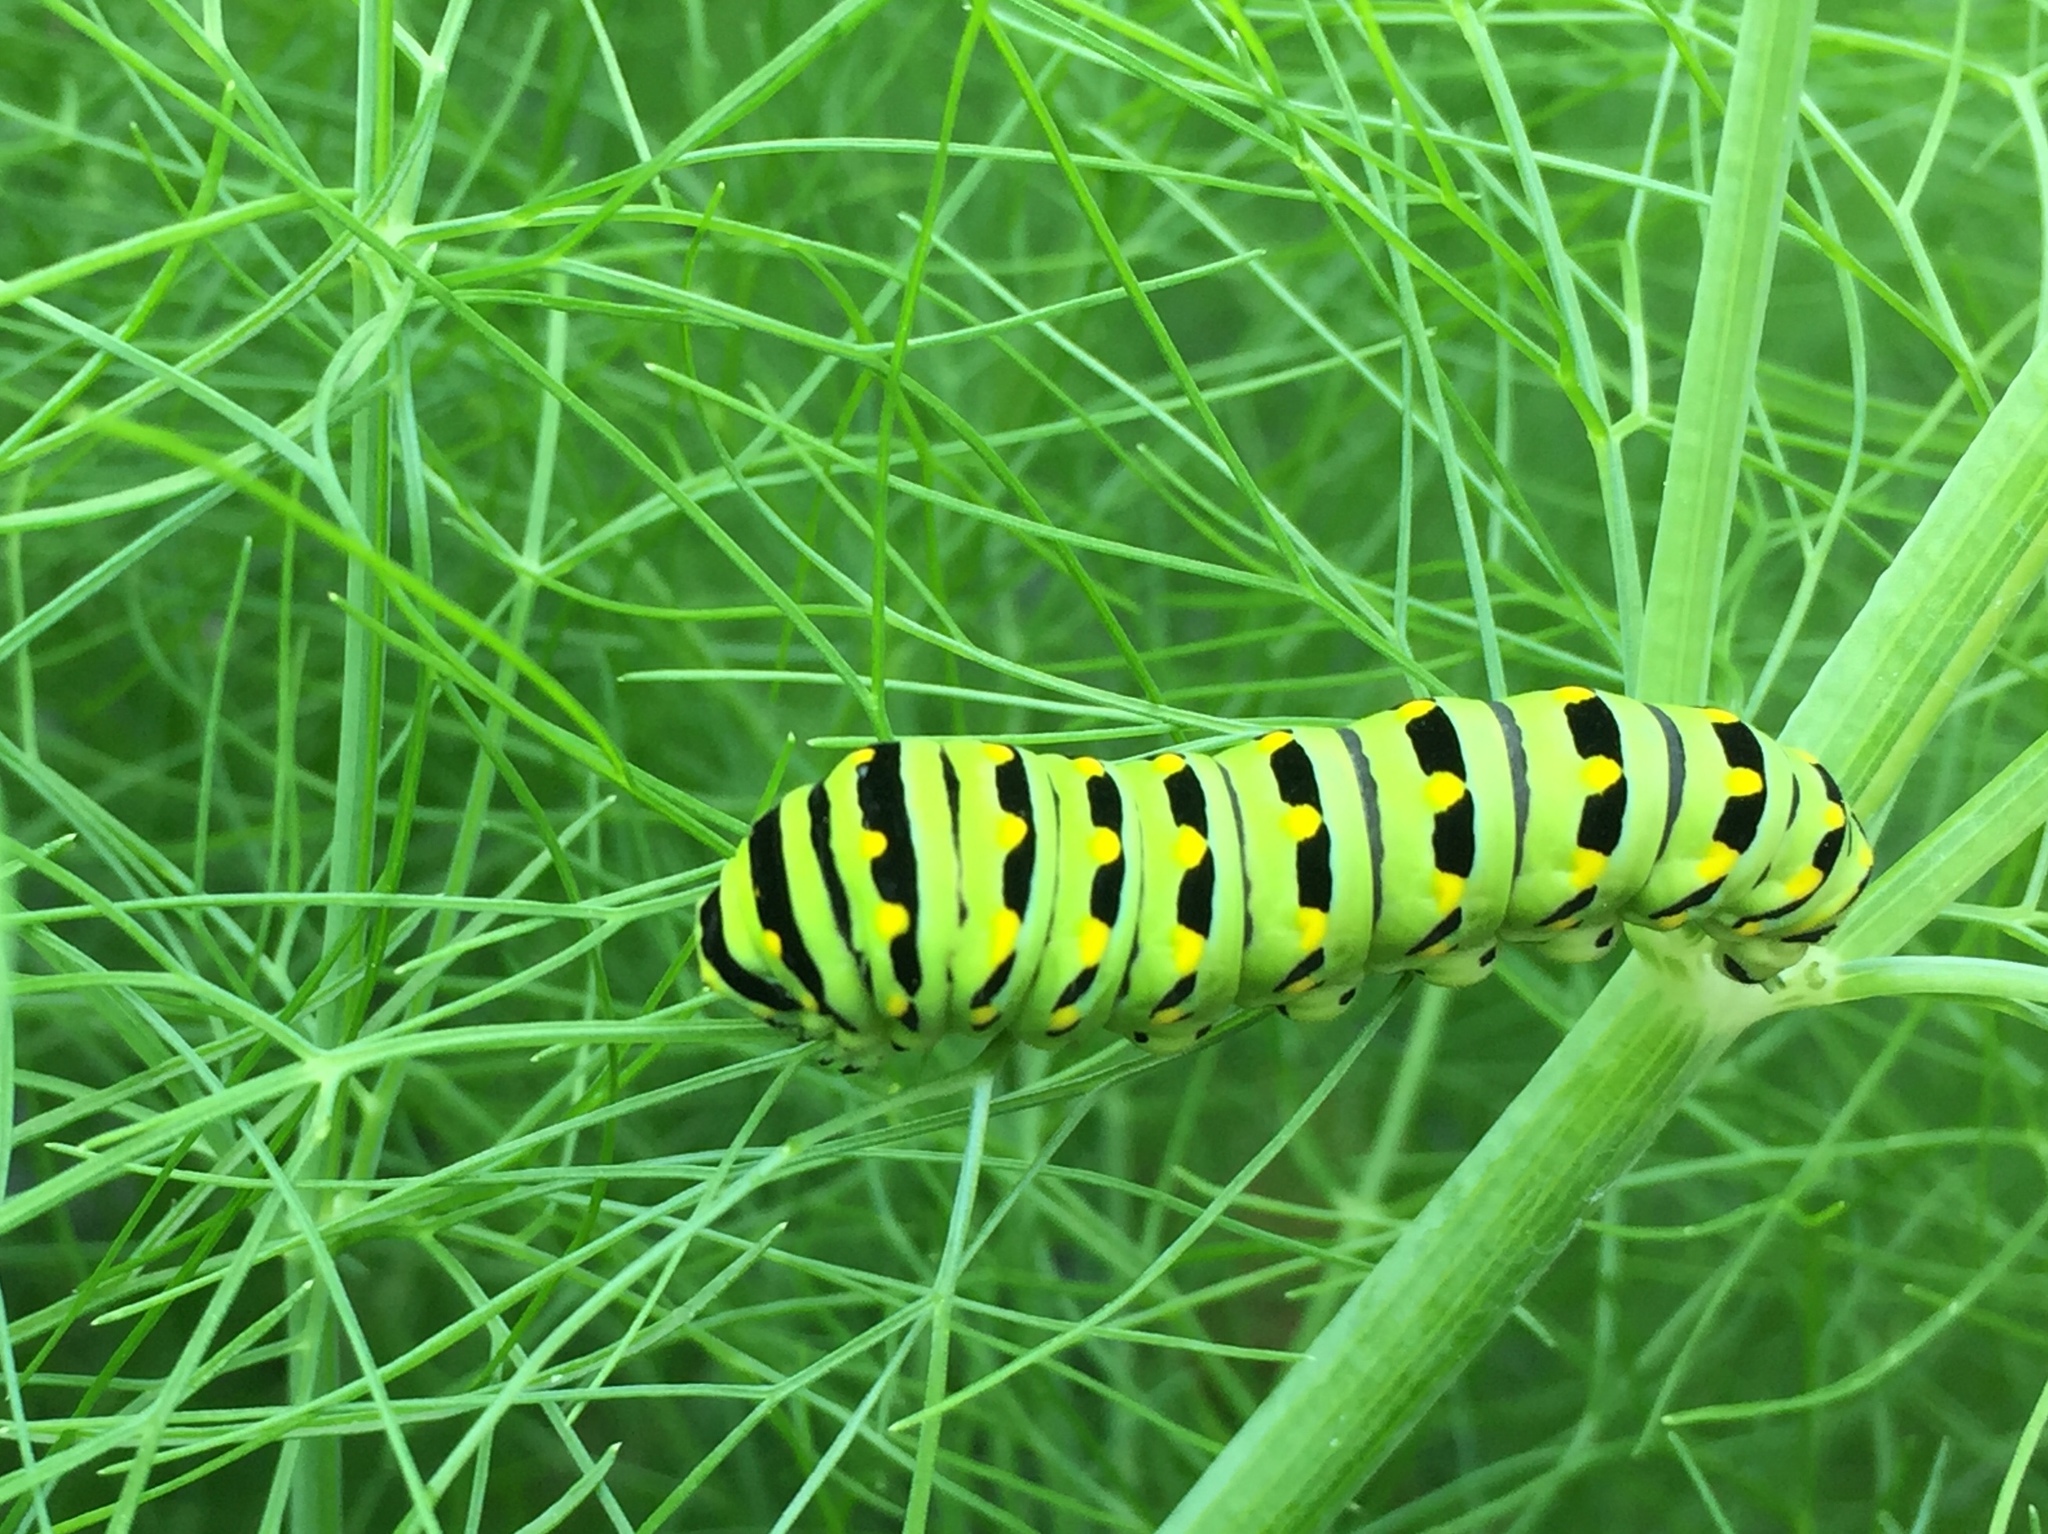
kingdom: Animalia
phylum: Arthropoda
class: Insecta
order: Lepidoptera
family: Papilionidae
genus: Papilio
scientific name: Papilio polyxenes
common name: Black swallowtail
